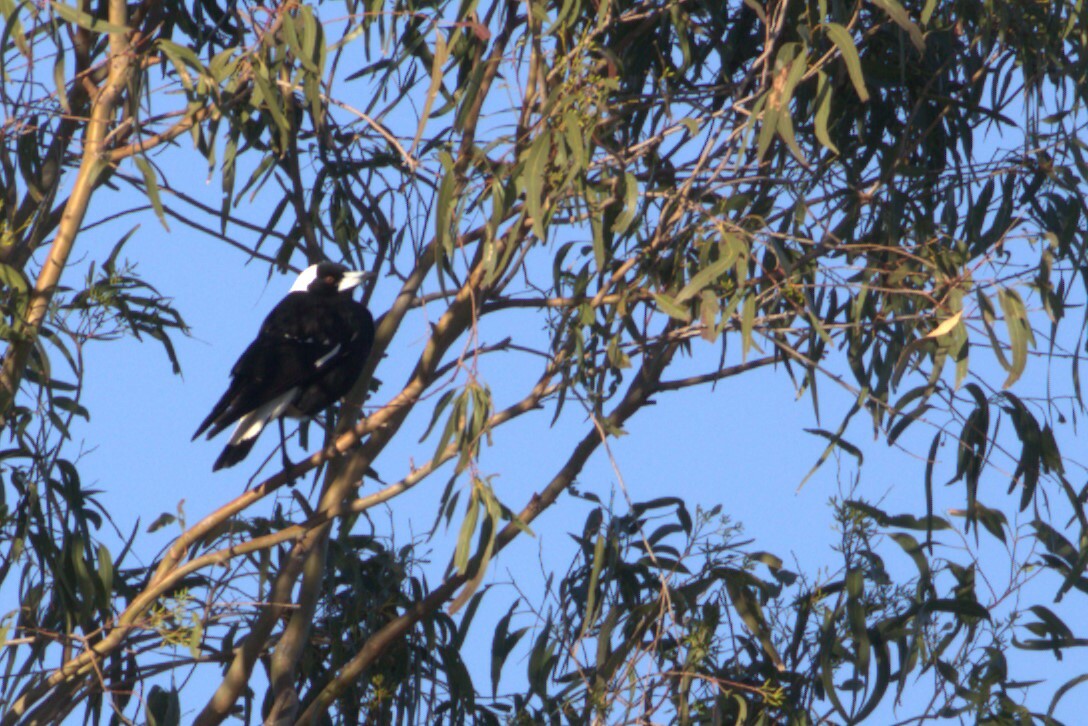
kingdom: Animalia
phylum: Chordata
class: Aves
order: Passeriformes
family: Cracticidae
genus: Gymnorhina
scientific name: Gymnorhina tibicen
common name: Australian magpie
